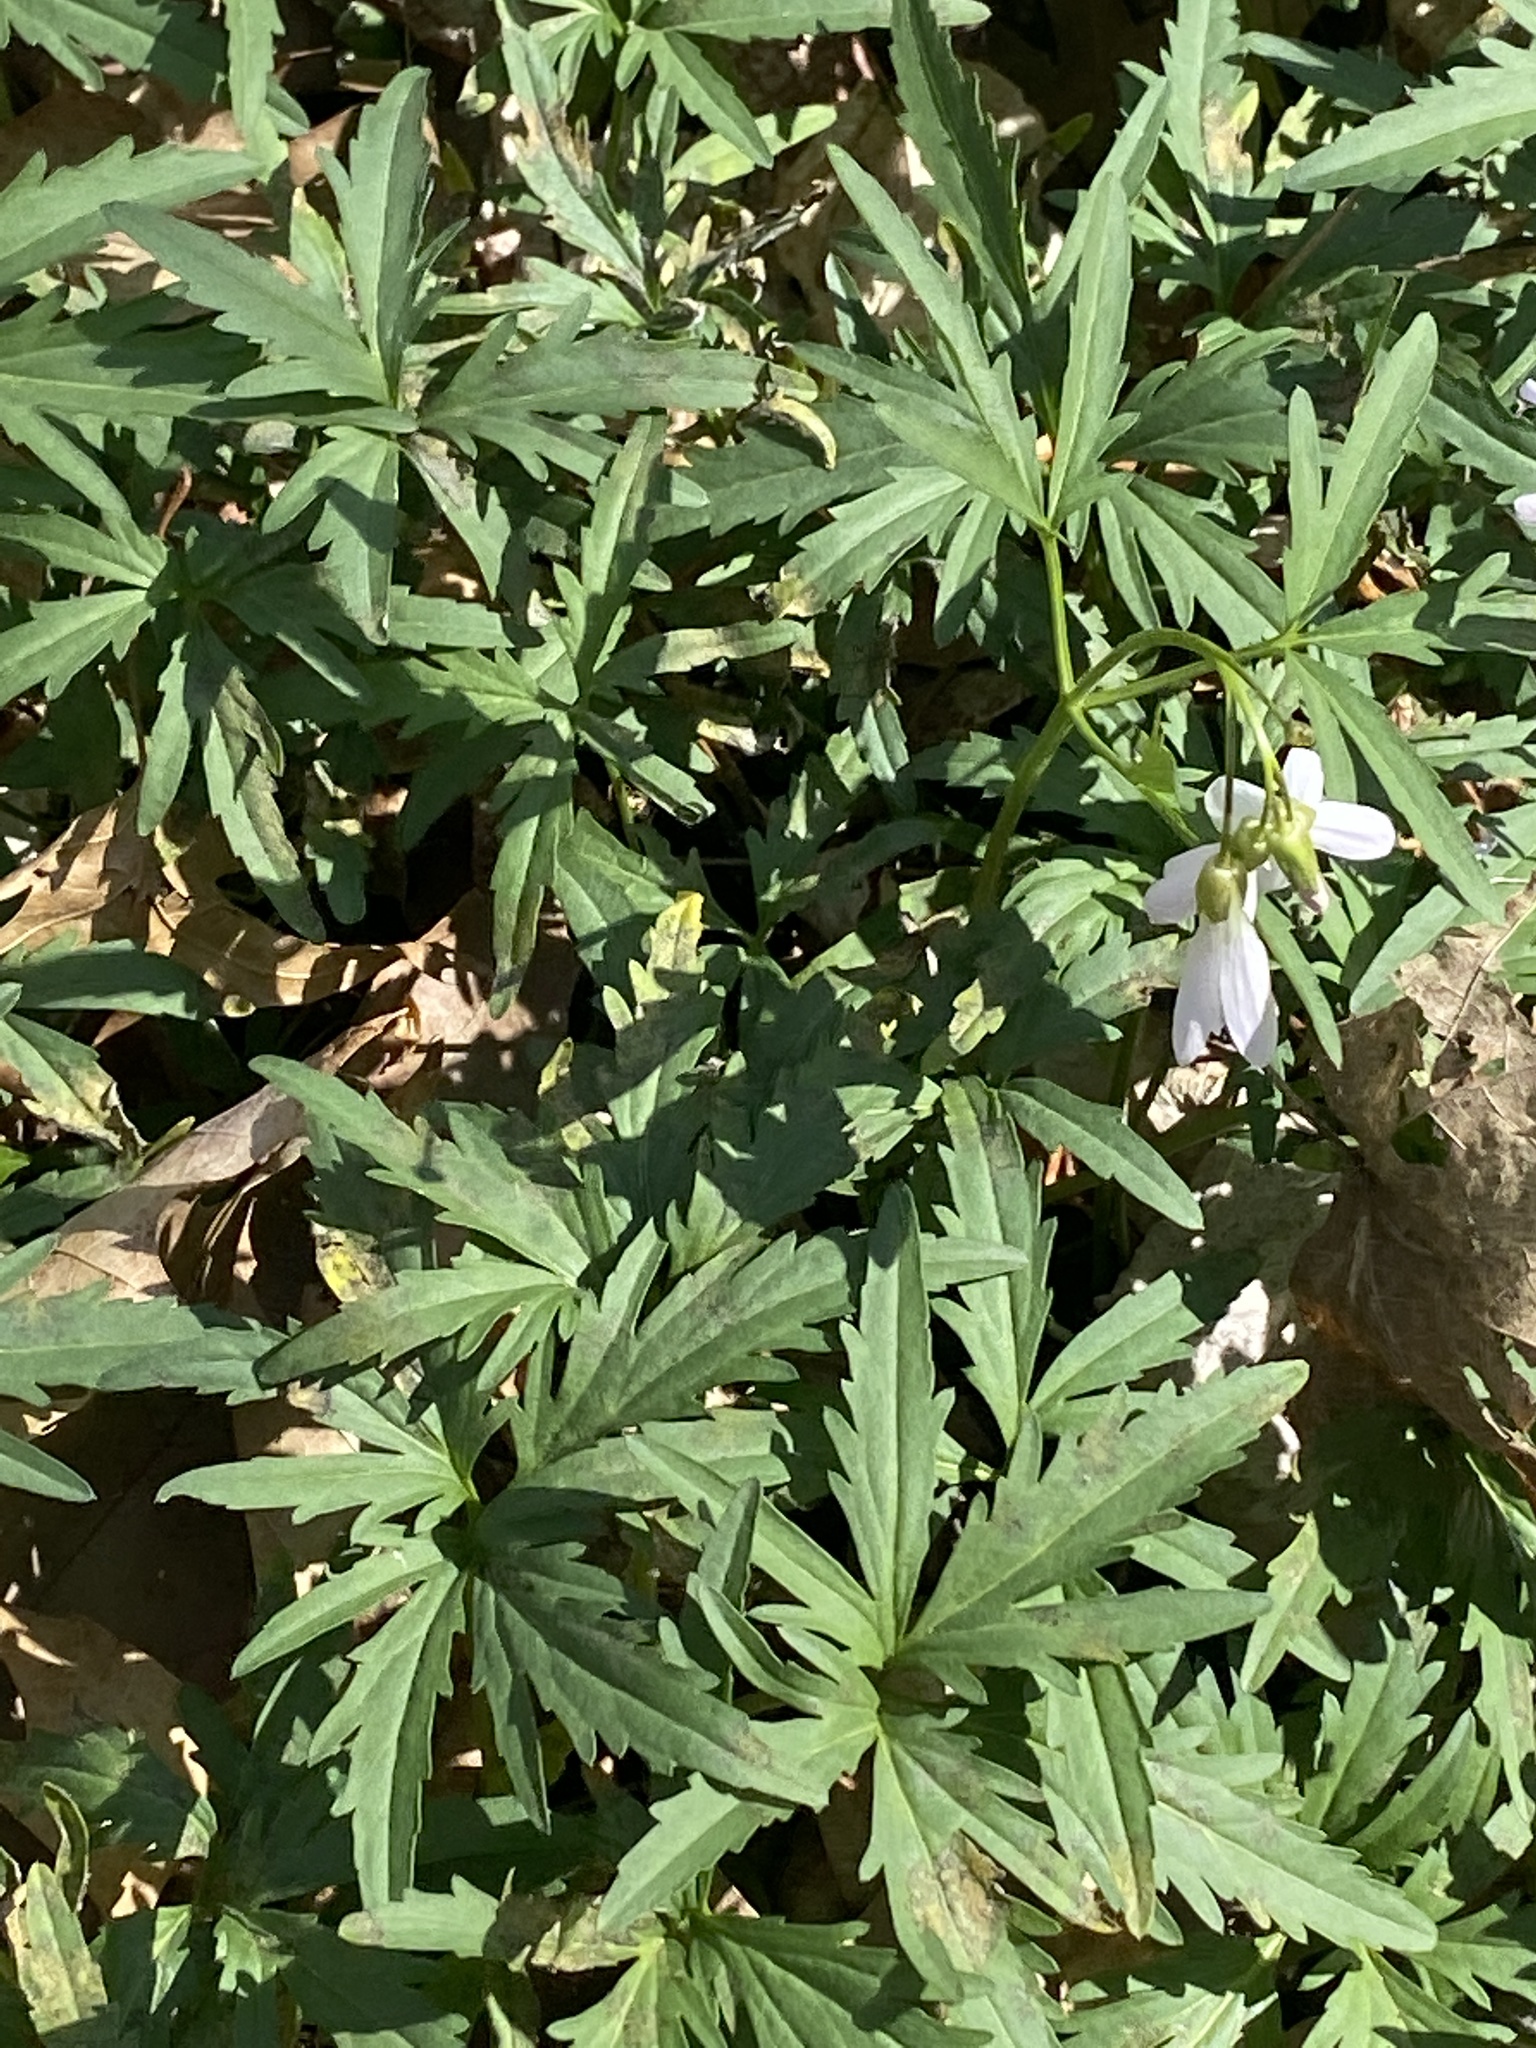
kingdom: Plantae
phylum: Tracheophyta
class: Magnoliopsida
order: Brassicales
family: Brassicaceae
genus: Cardamine
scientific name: Cardamine concatenata
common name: Cut-leaf toothcup
